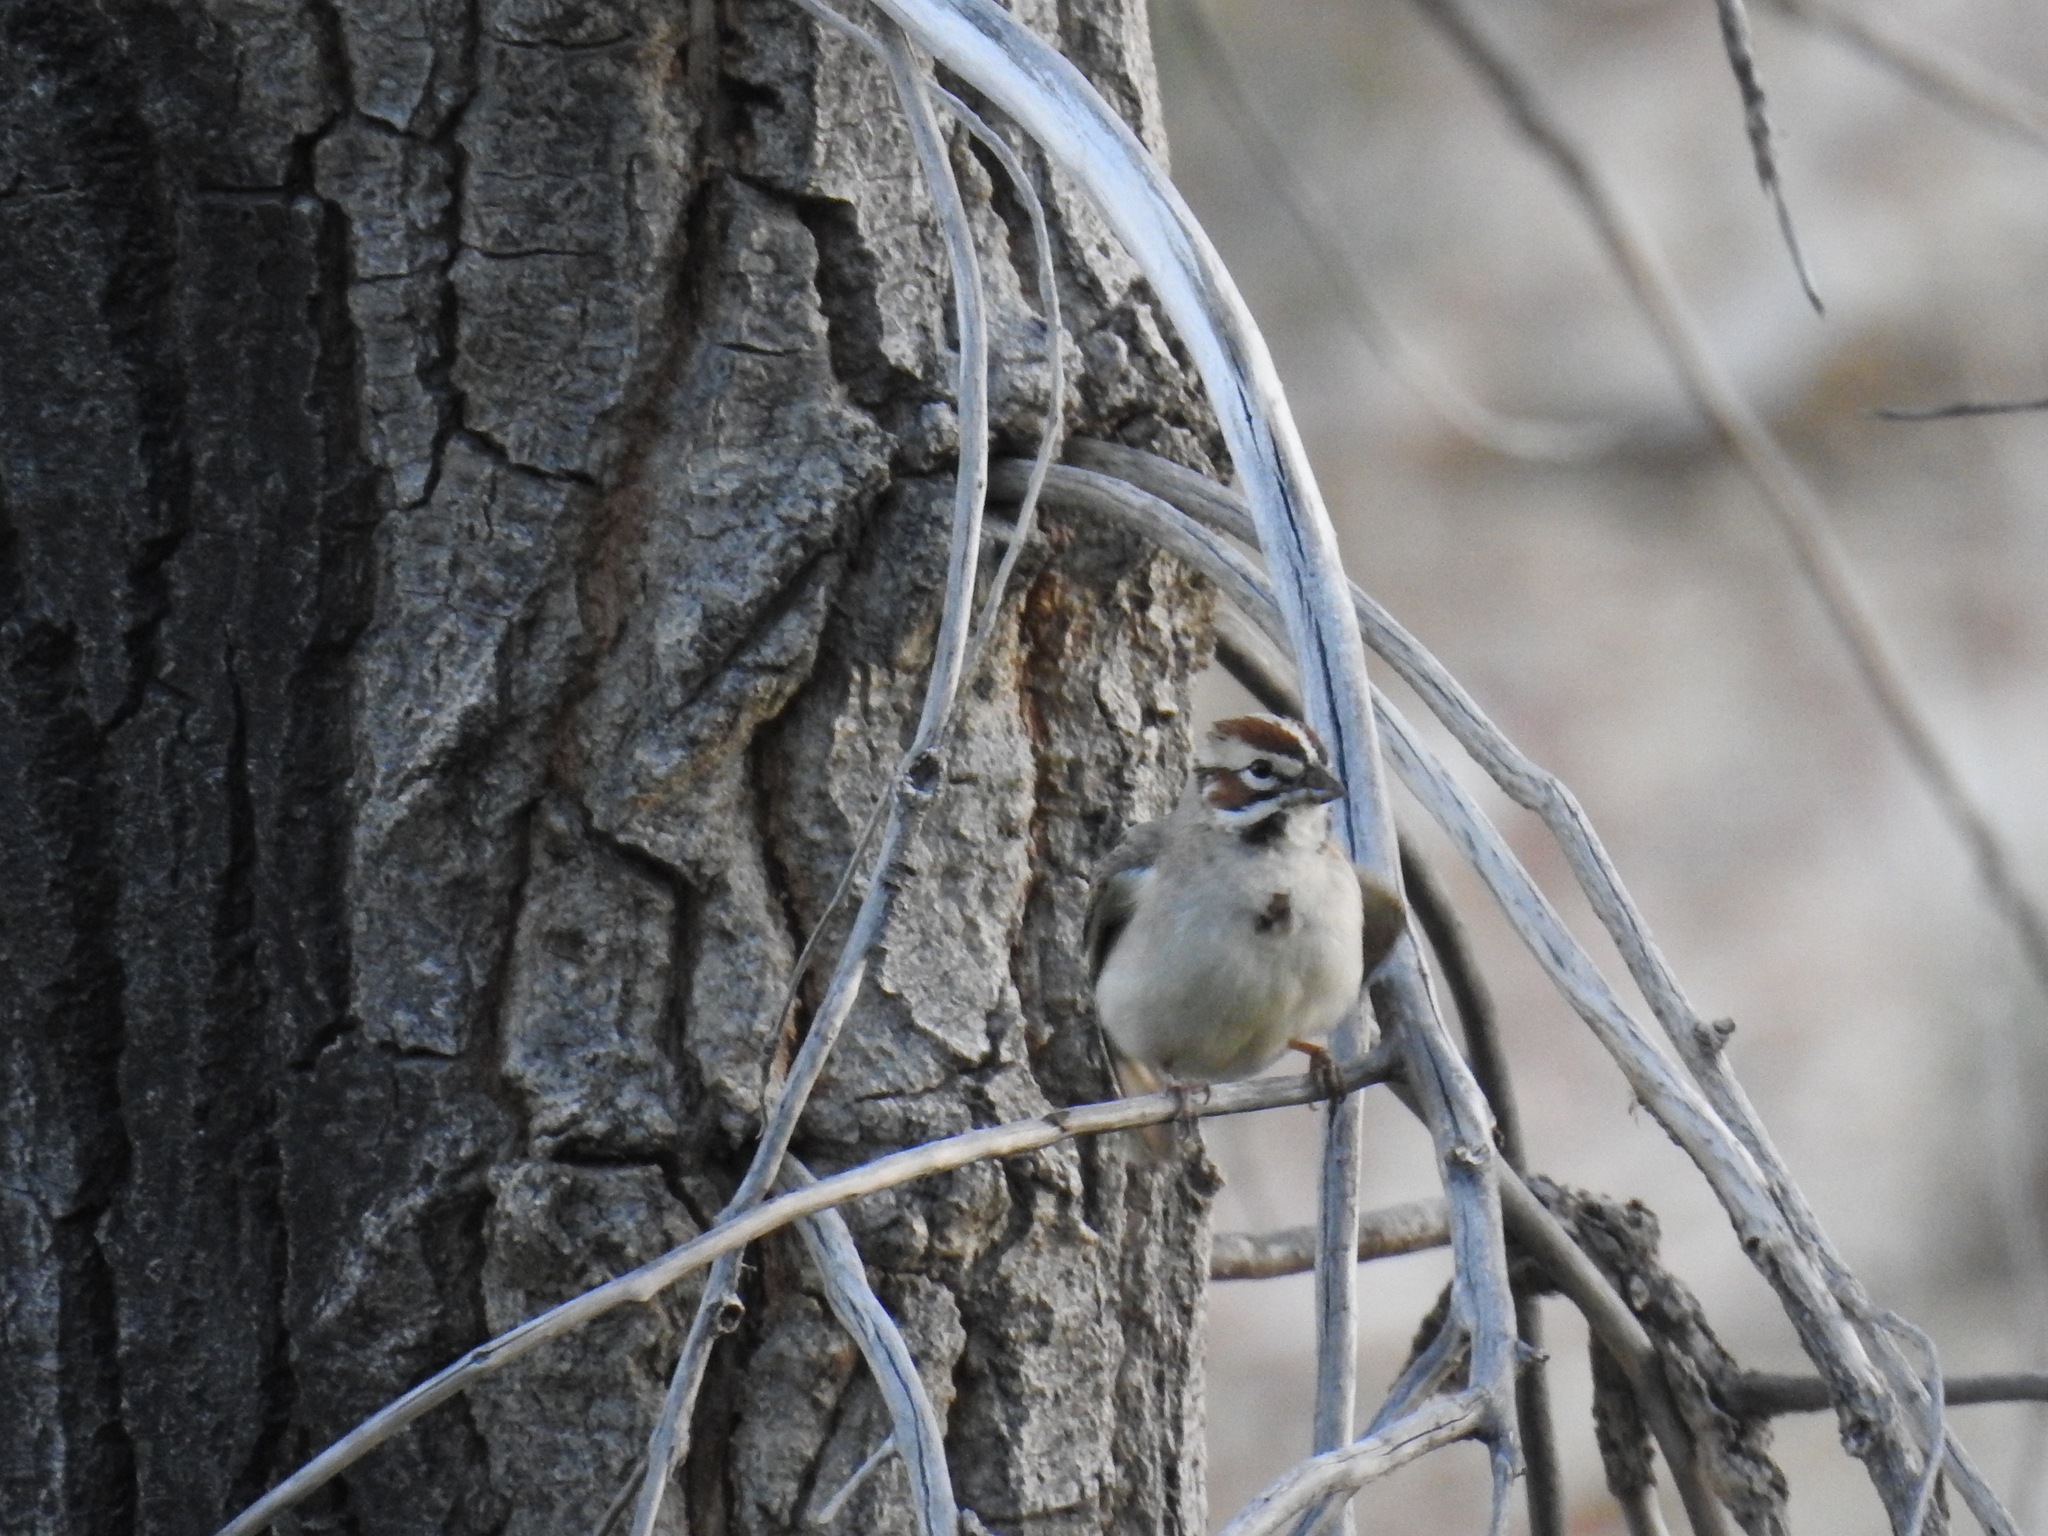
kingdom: Animalia
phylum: Chordata
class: Aves
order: Passeriformes
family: Passerellidae
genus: Chondestes
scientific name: Chondestes grammacus
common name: Lark sparrow
